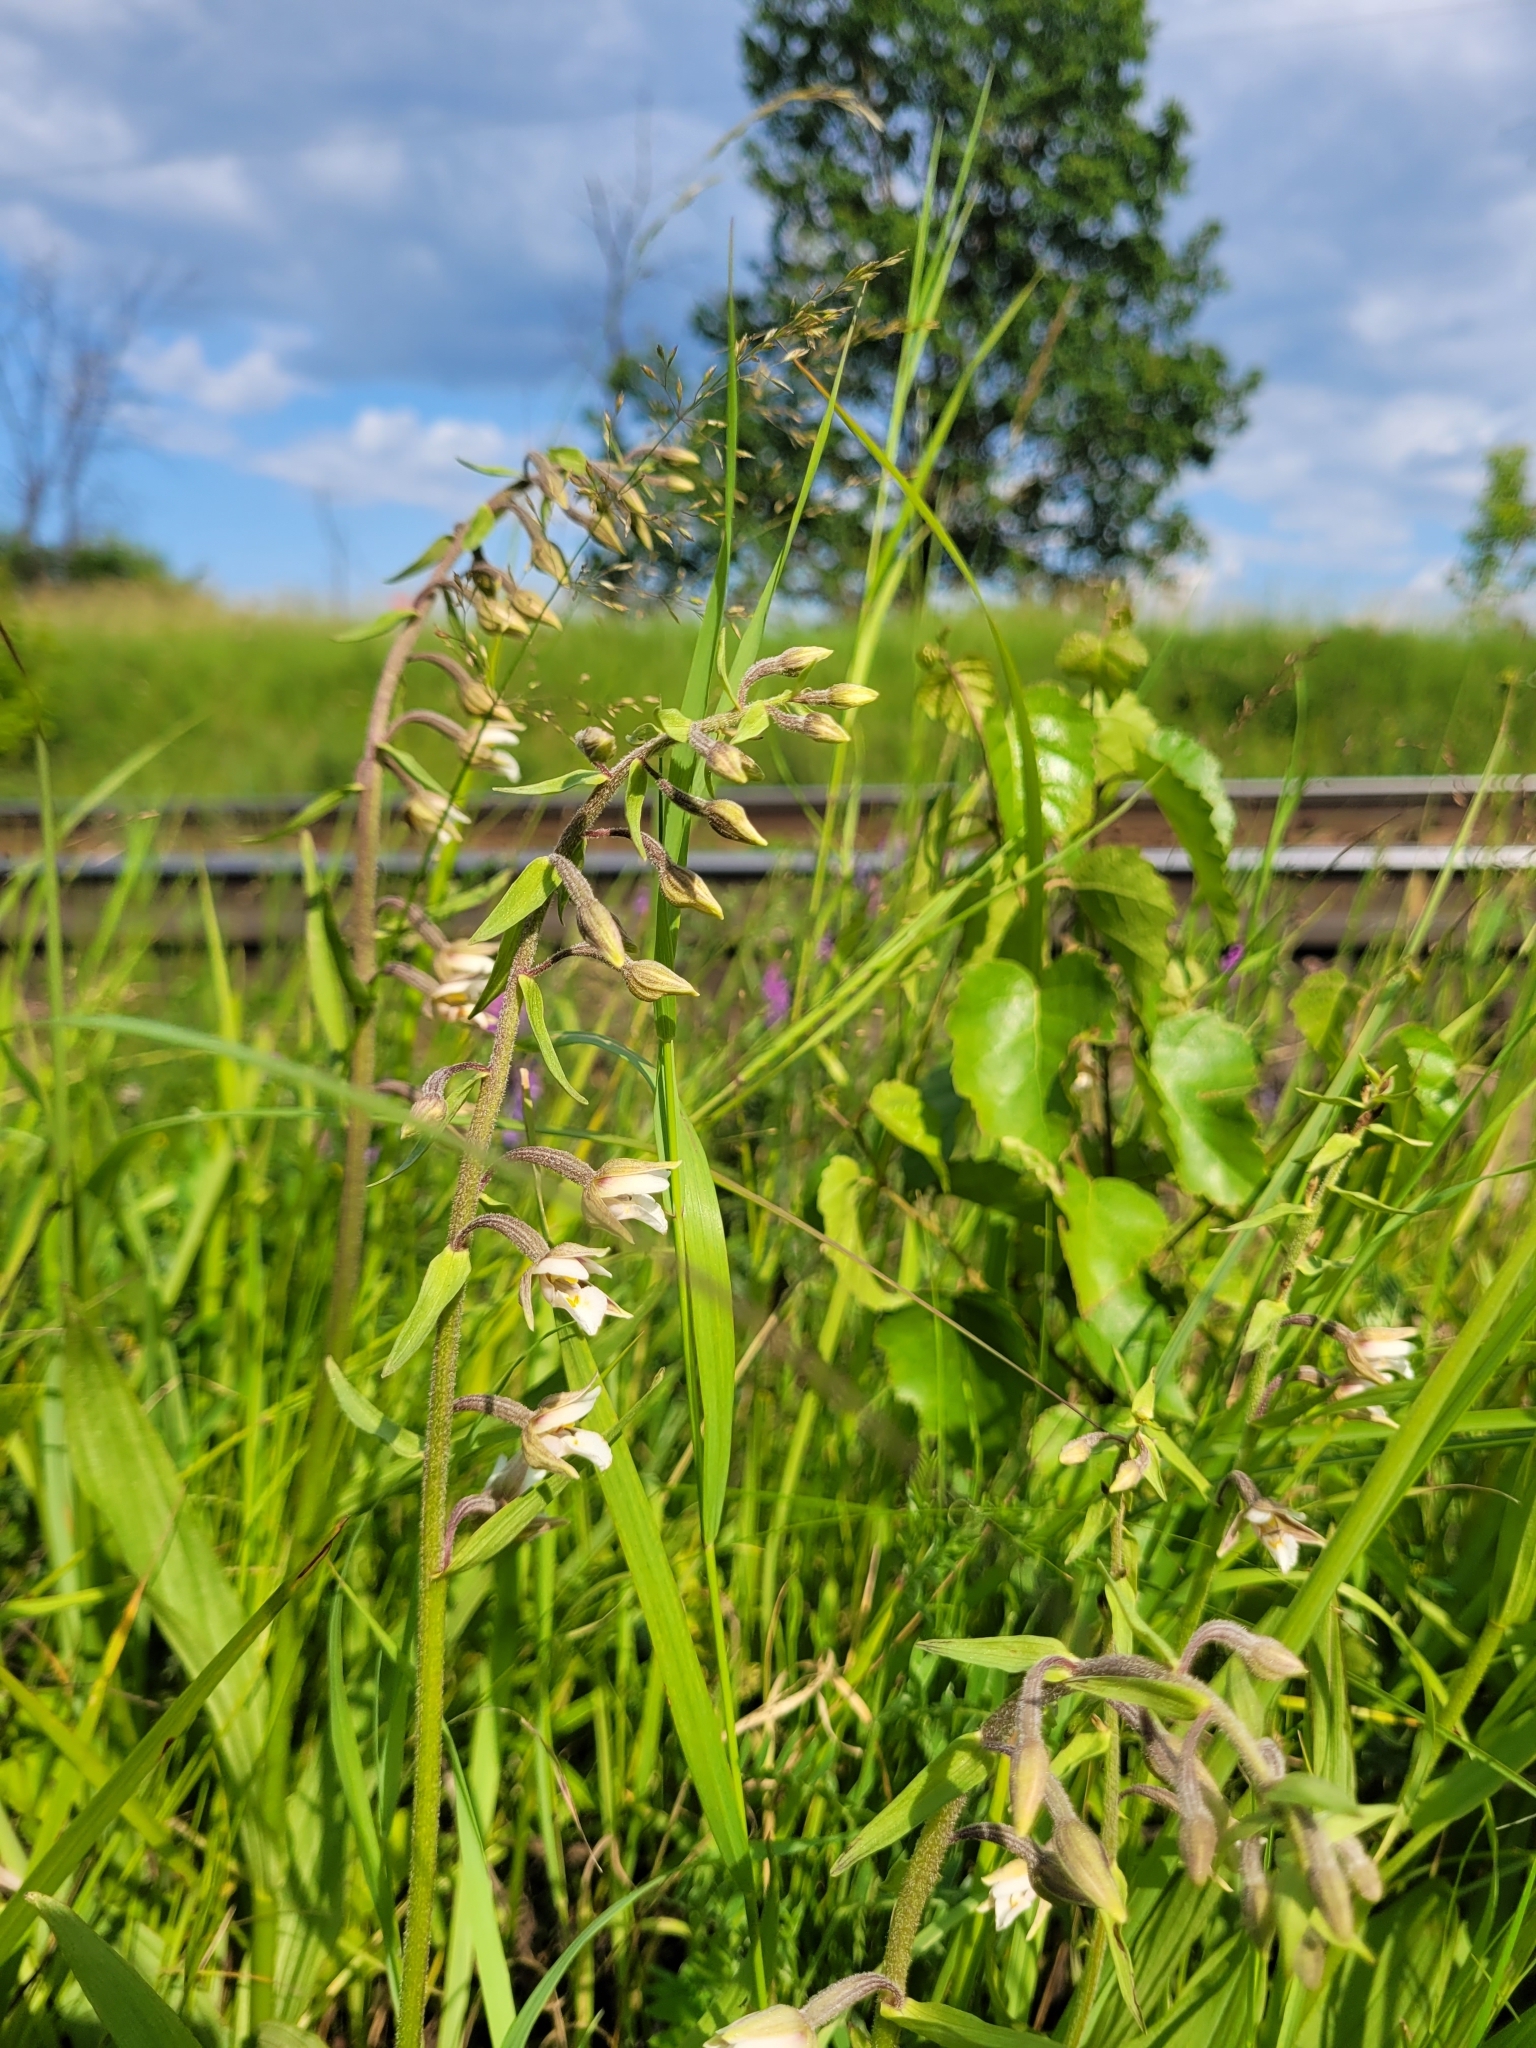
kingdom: Plantae
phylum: Tracheophyta
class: Liliopsida
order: Asparagales
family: Orchidaceae
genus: Epipactis
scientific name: Epipactis palustris
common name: Marsh helleborine
